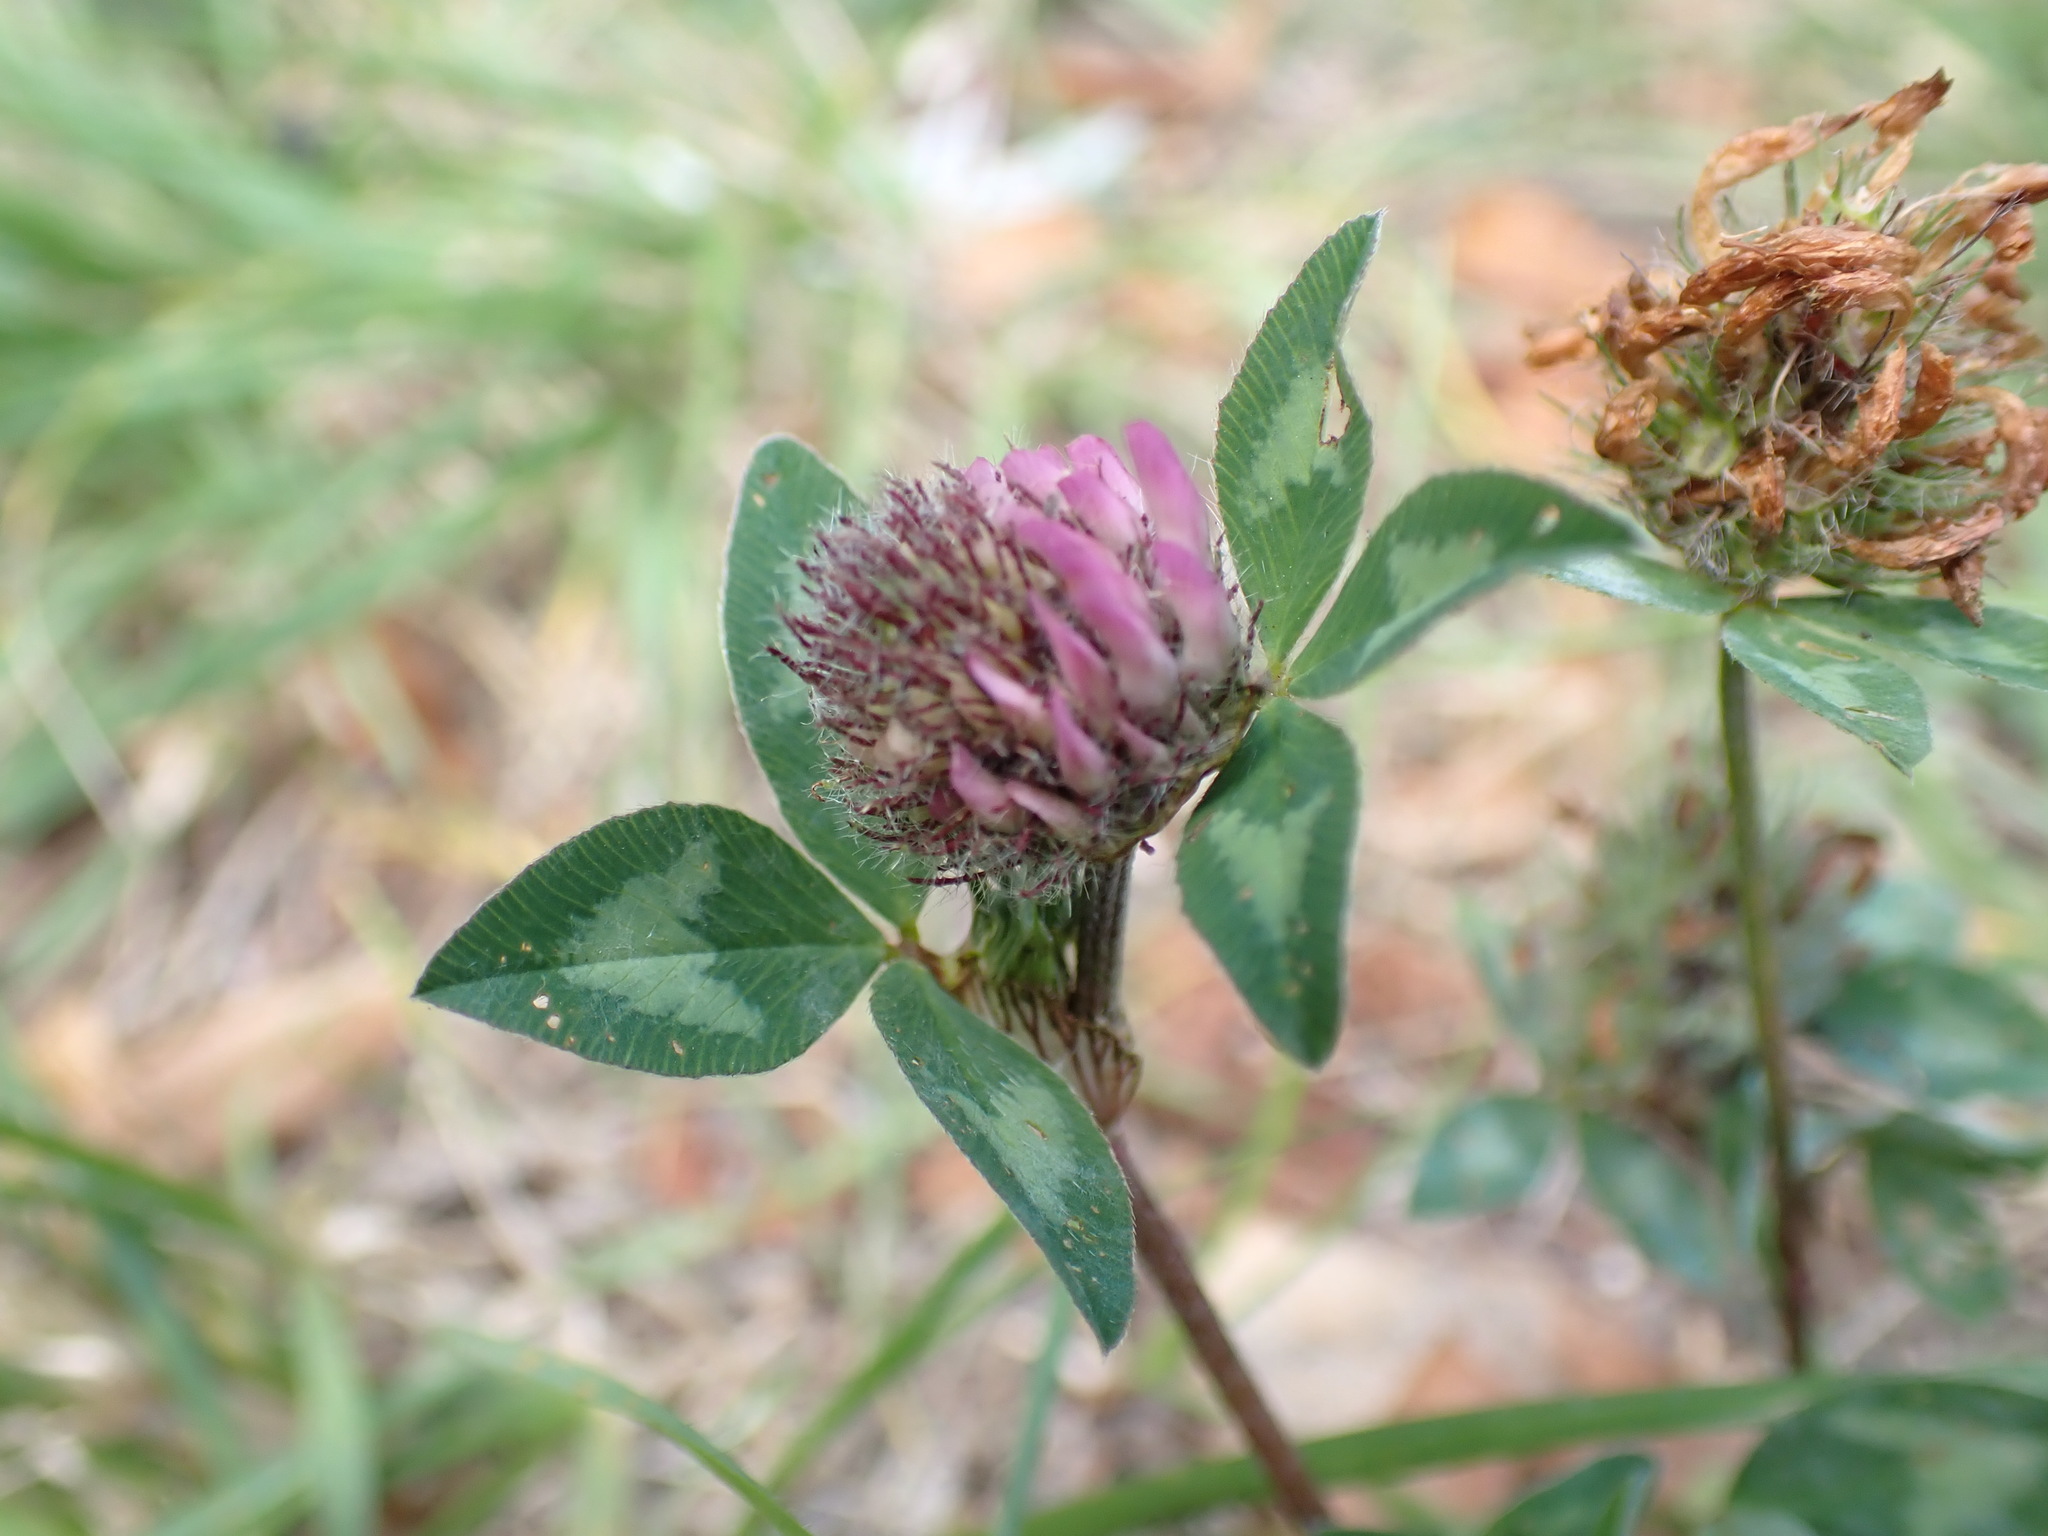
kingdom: Plantae
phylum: Tracheophyta
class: Magnoliopsida
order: Fabales
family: Fabaceae
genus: Trifolium
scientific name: Trifolium pratense
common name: Red clover
